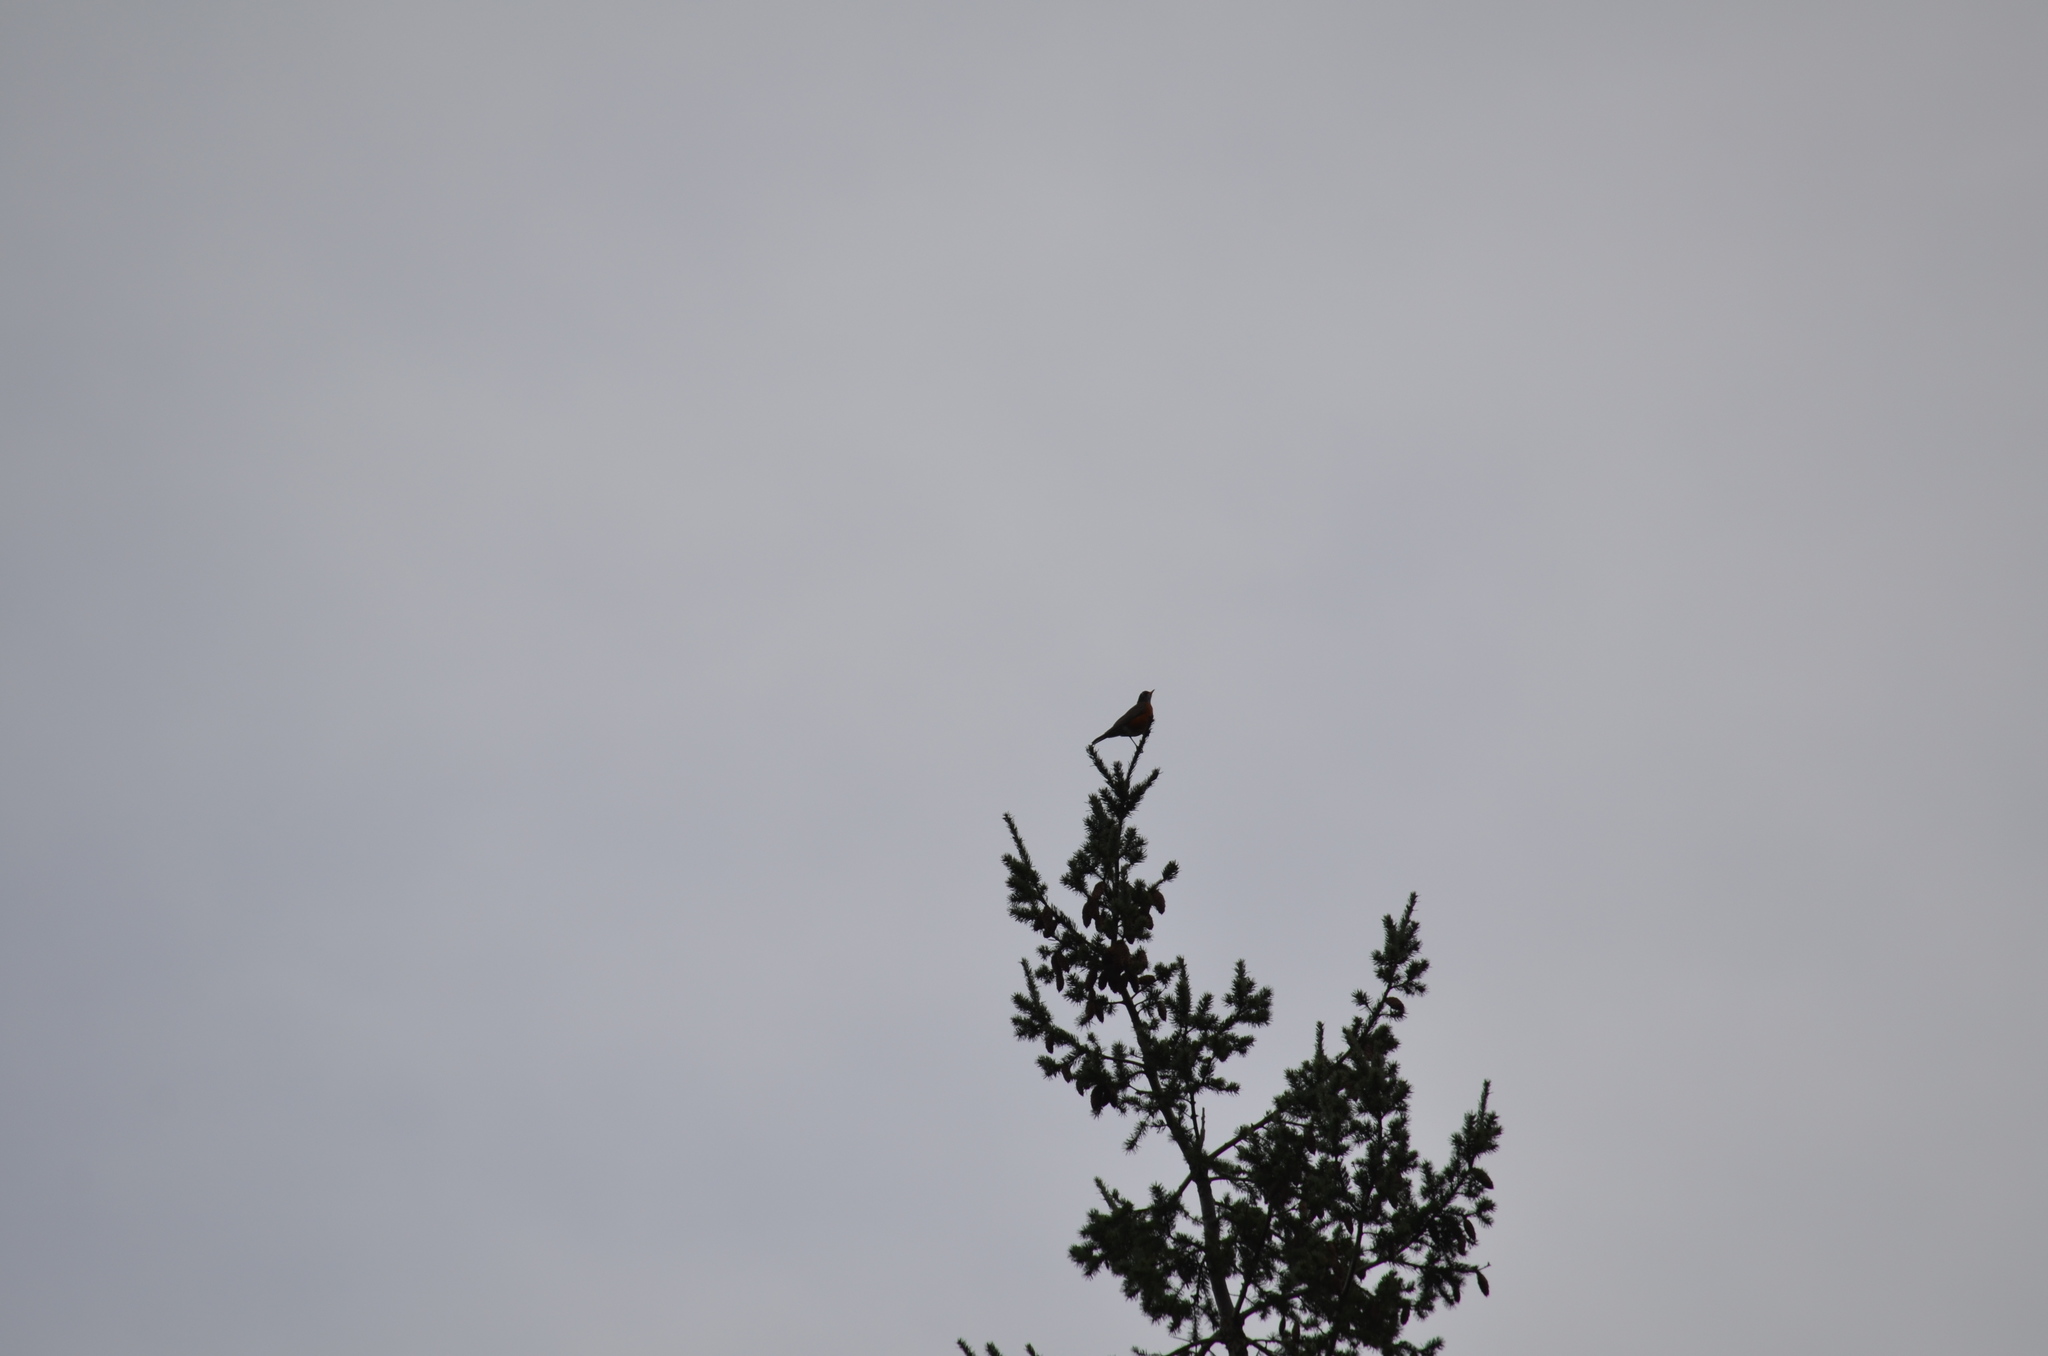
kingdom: Animalia
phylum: Chordata
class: Aves
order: Passeriformes
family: Turdidae
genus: Turdus
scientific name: Turdus migratorius
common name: American robin
